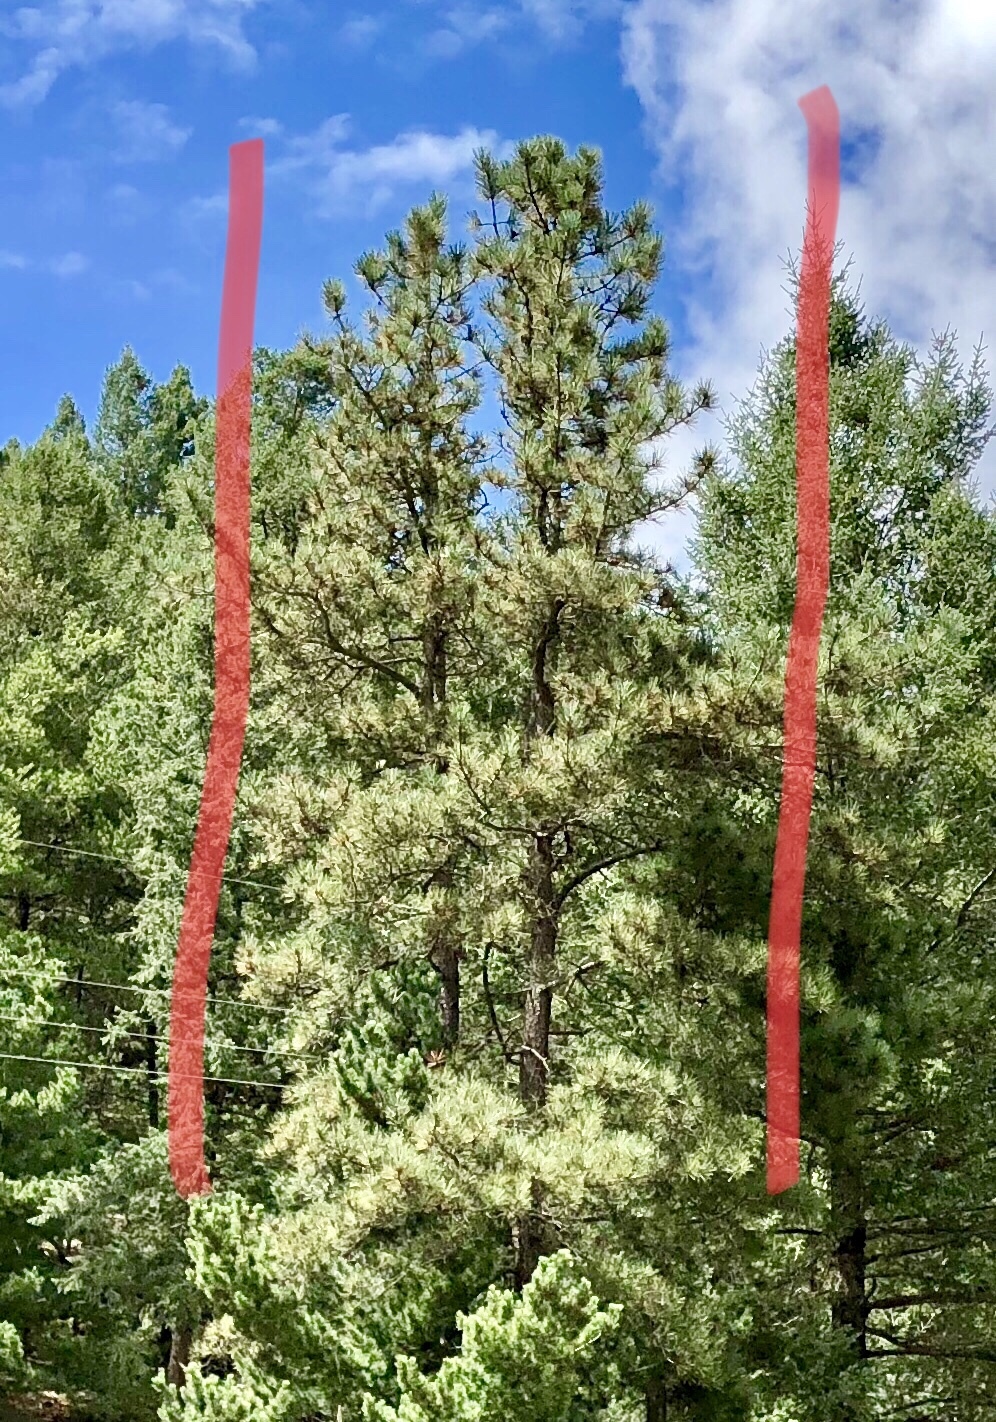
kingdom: Plantae
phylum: Tracheophyta
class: Pinopsida
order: Pinales
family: Pinaceae
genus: Pinus
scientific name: Pinus ponderosa
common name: Western yellow-pine
